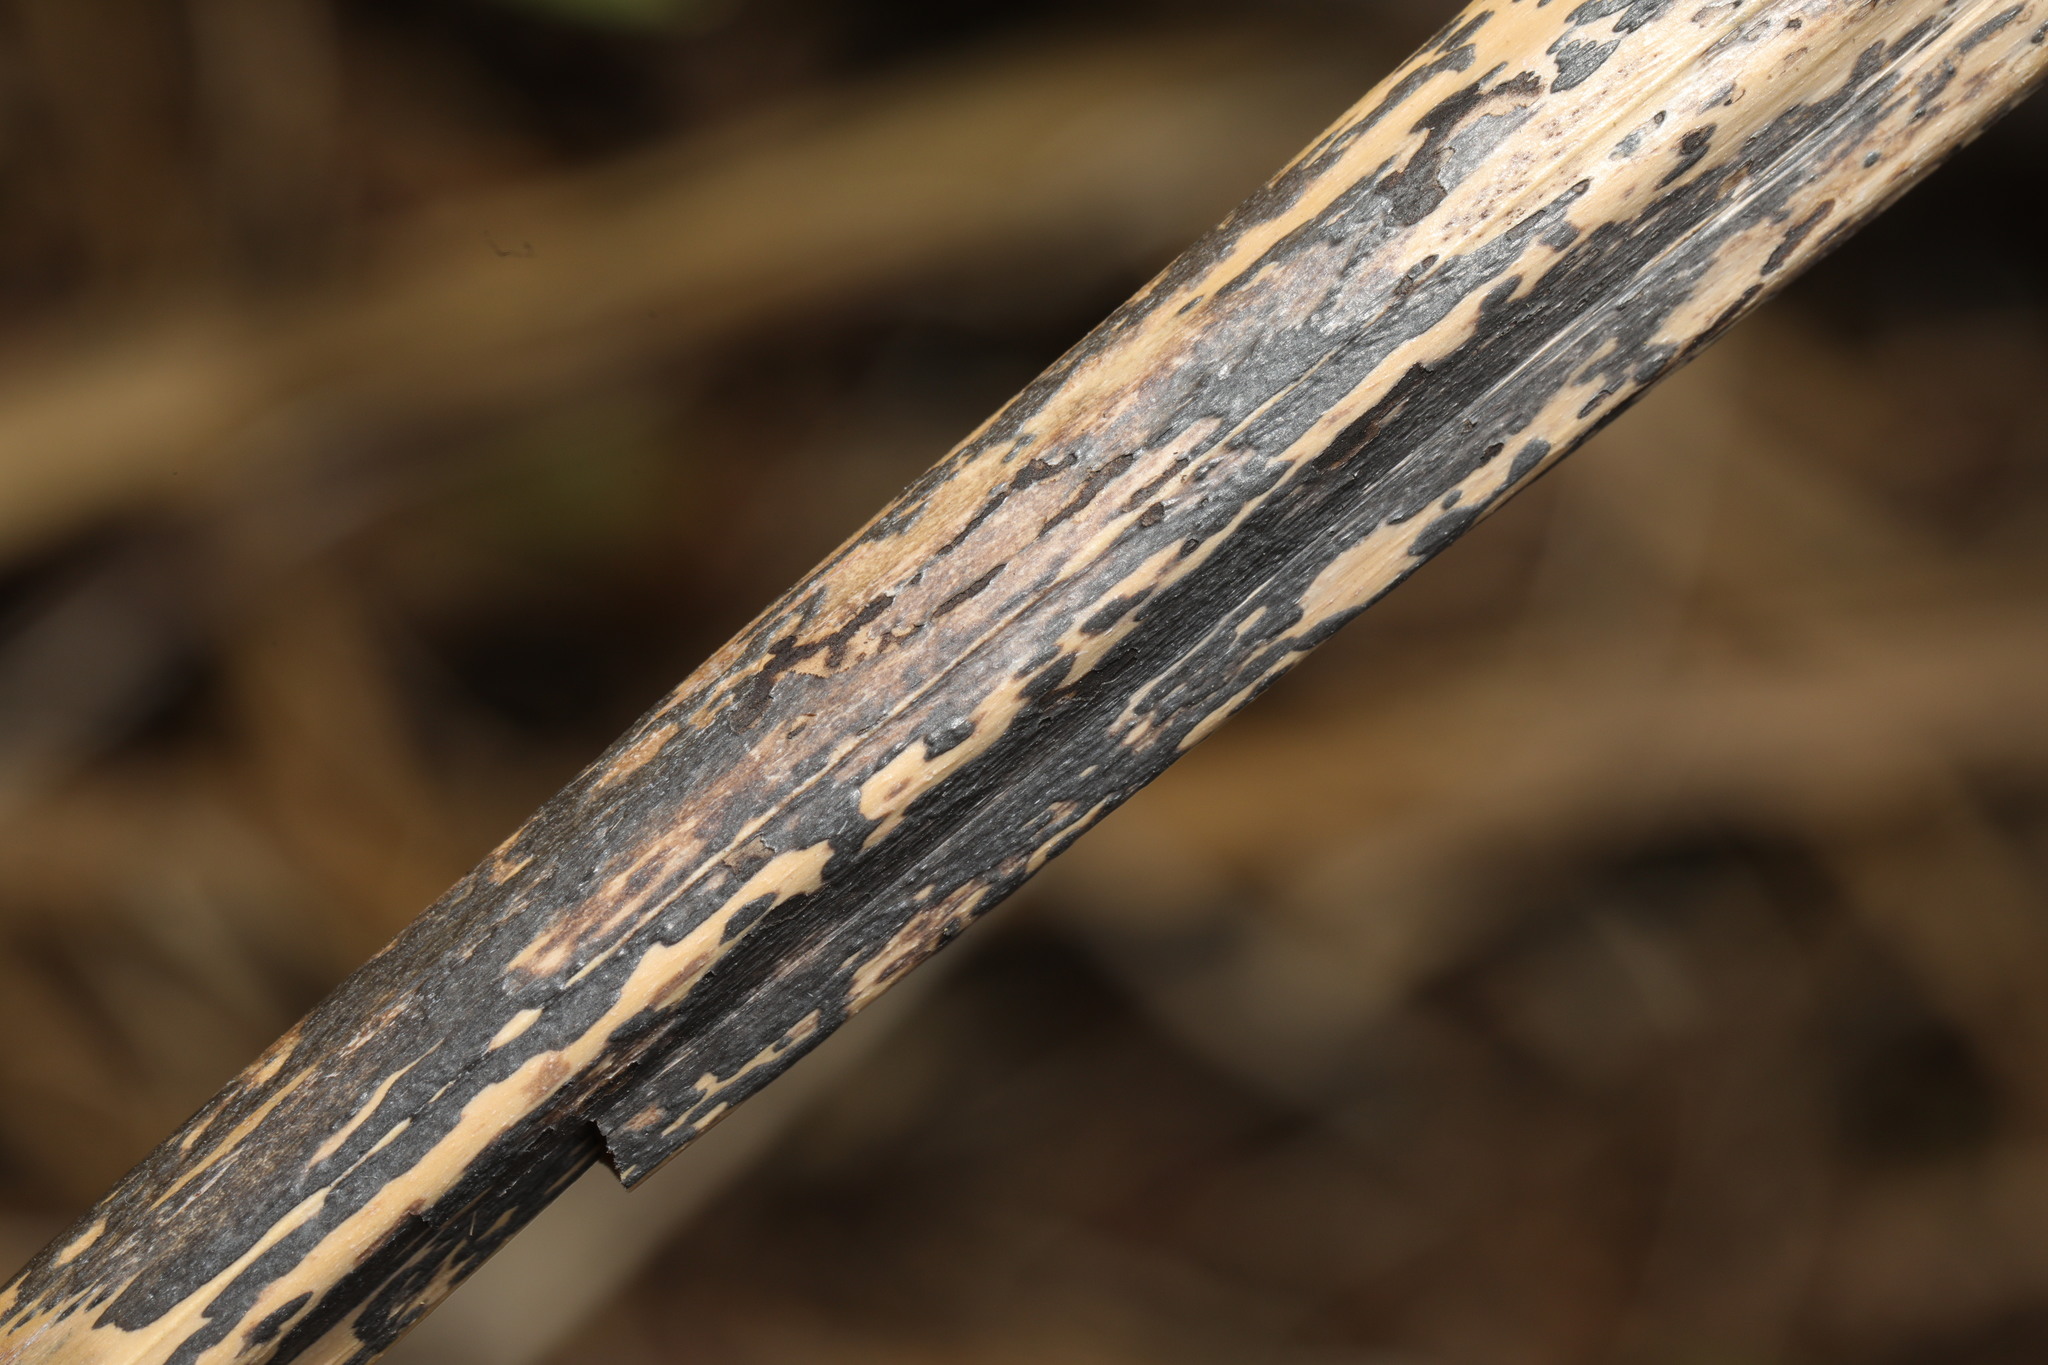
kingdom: Fungi
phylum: Ascomycota
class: Dothideomycetes
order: Pleosporales
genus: Rhopographus
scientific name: Rhopographus filicinus
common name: Bracken map
